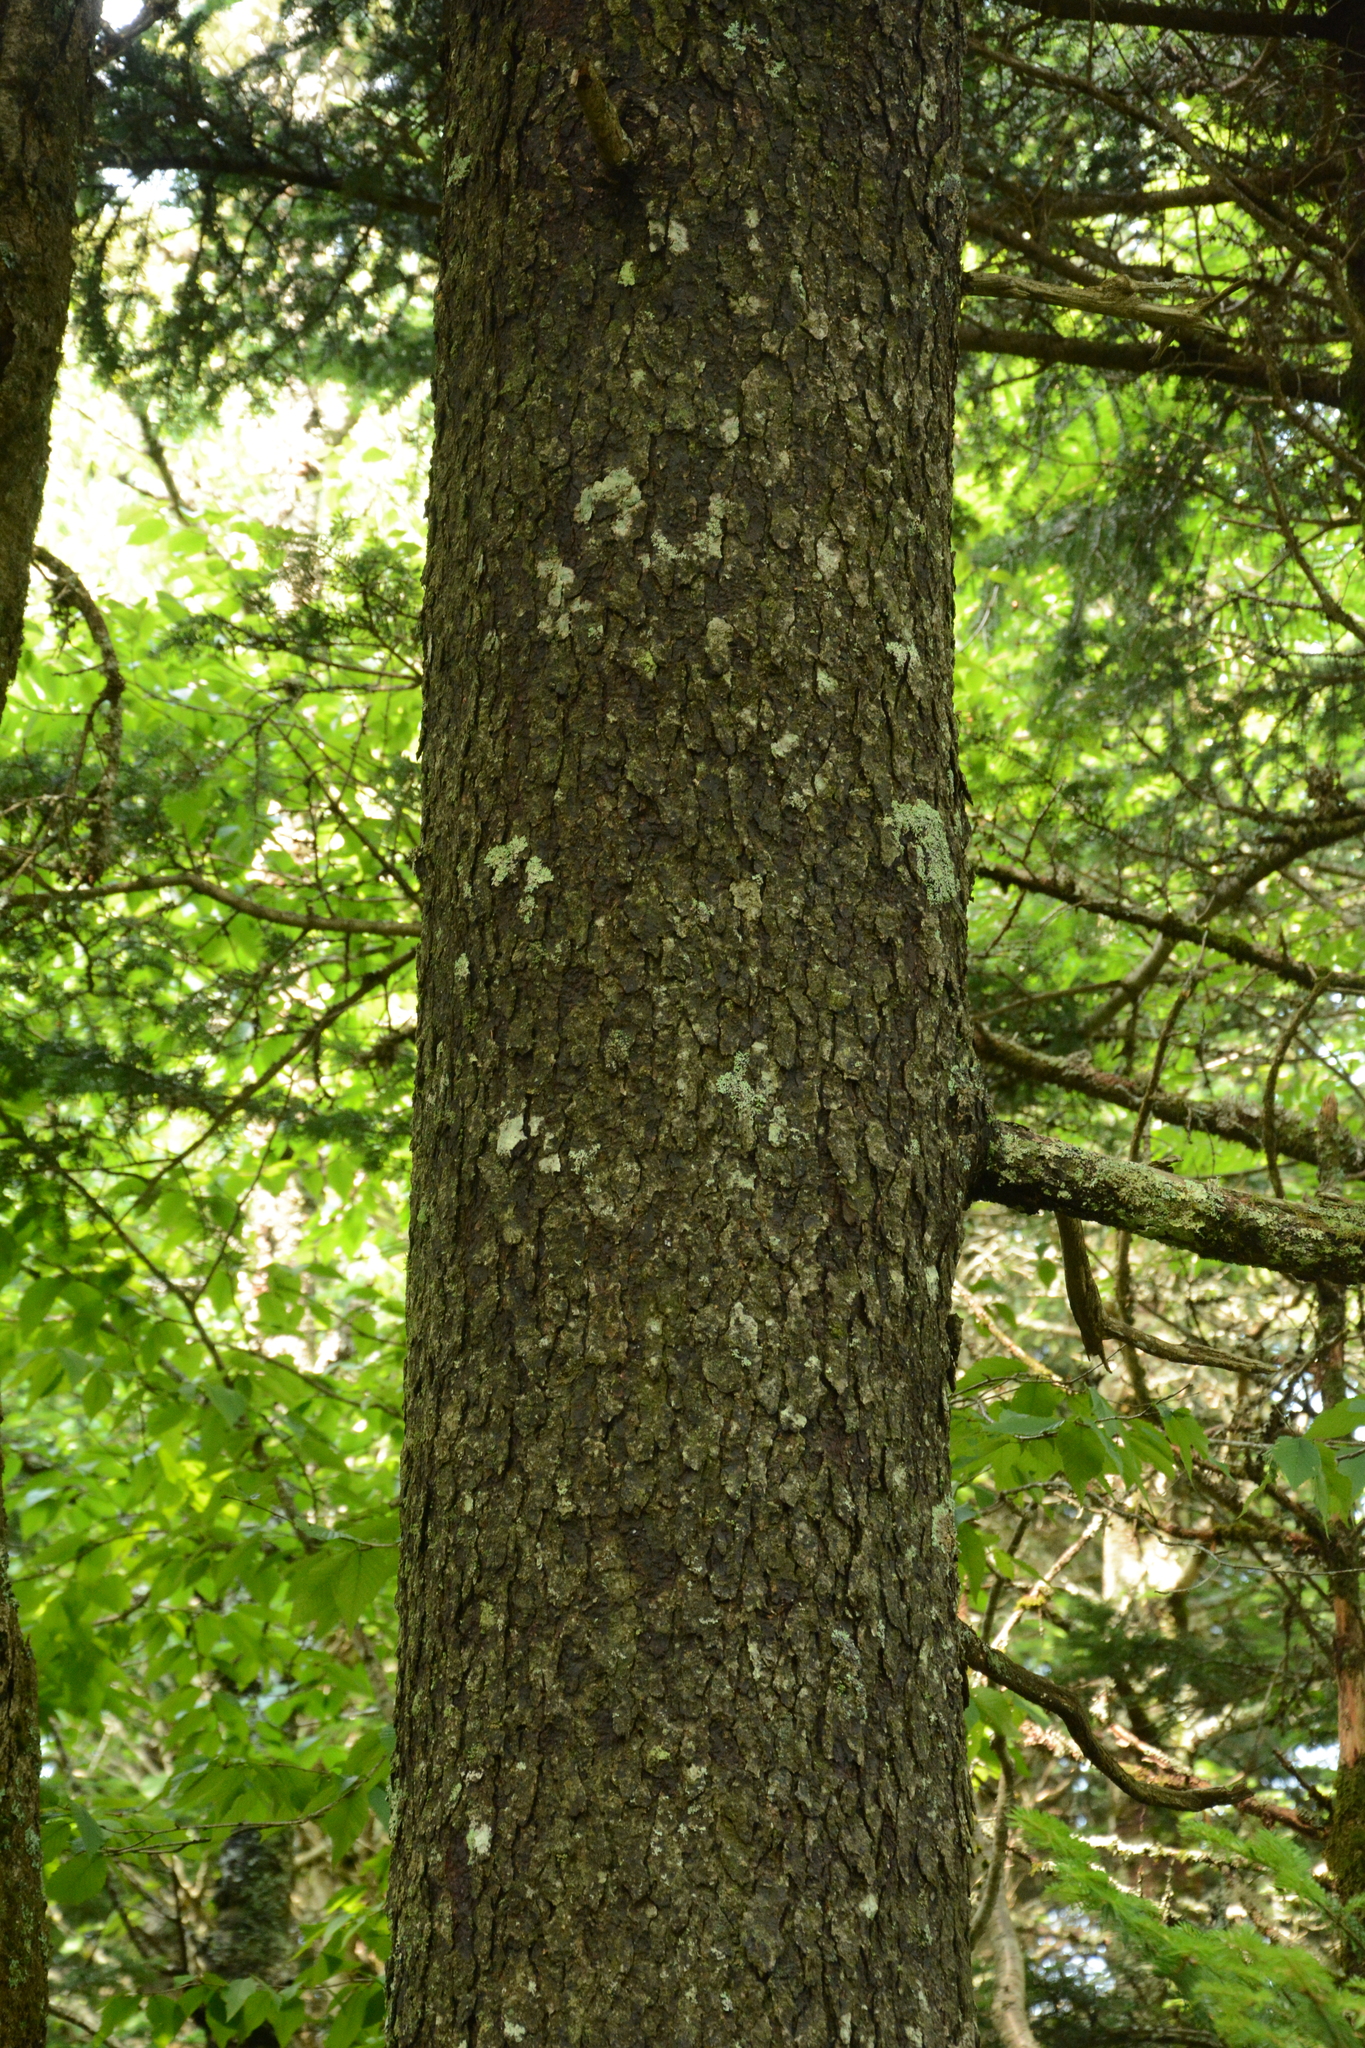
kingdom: Plantae
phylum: Tracheophyta
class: Pinopsida
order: Pinales
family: Pinaceae
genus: Abies
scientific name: Abies fraseri
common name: Fraser fir
